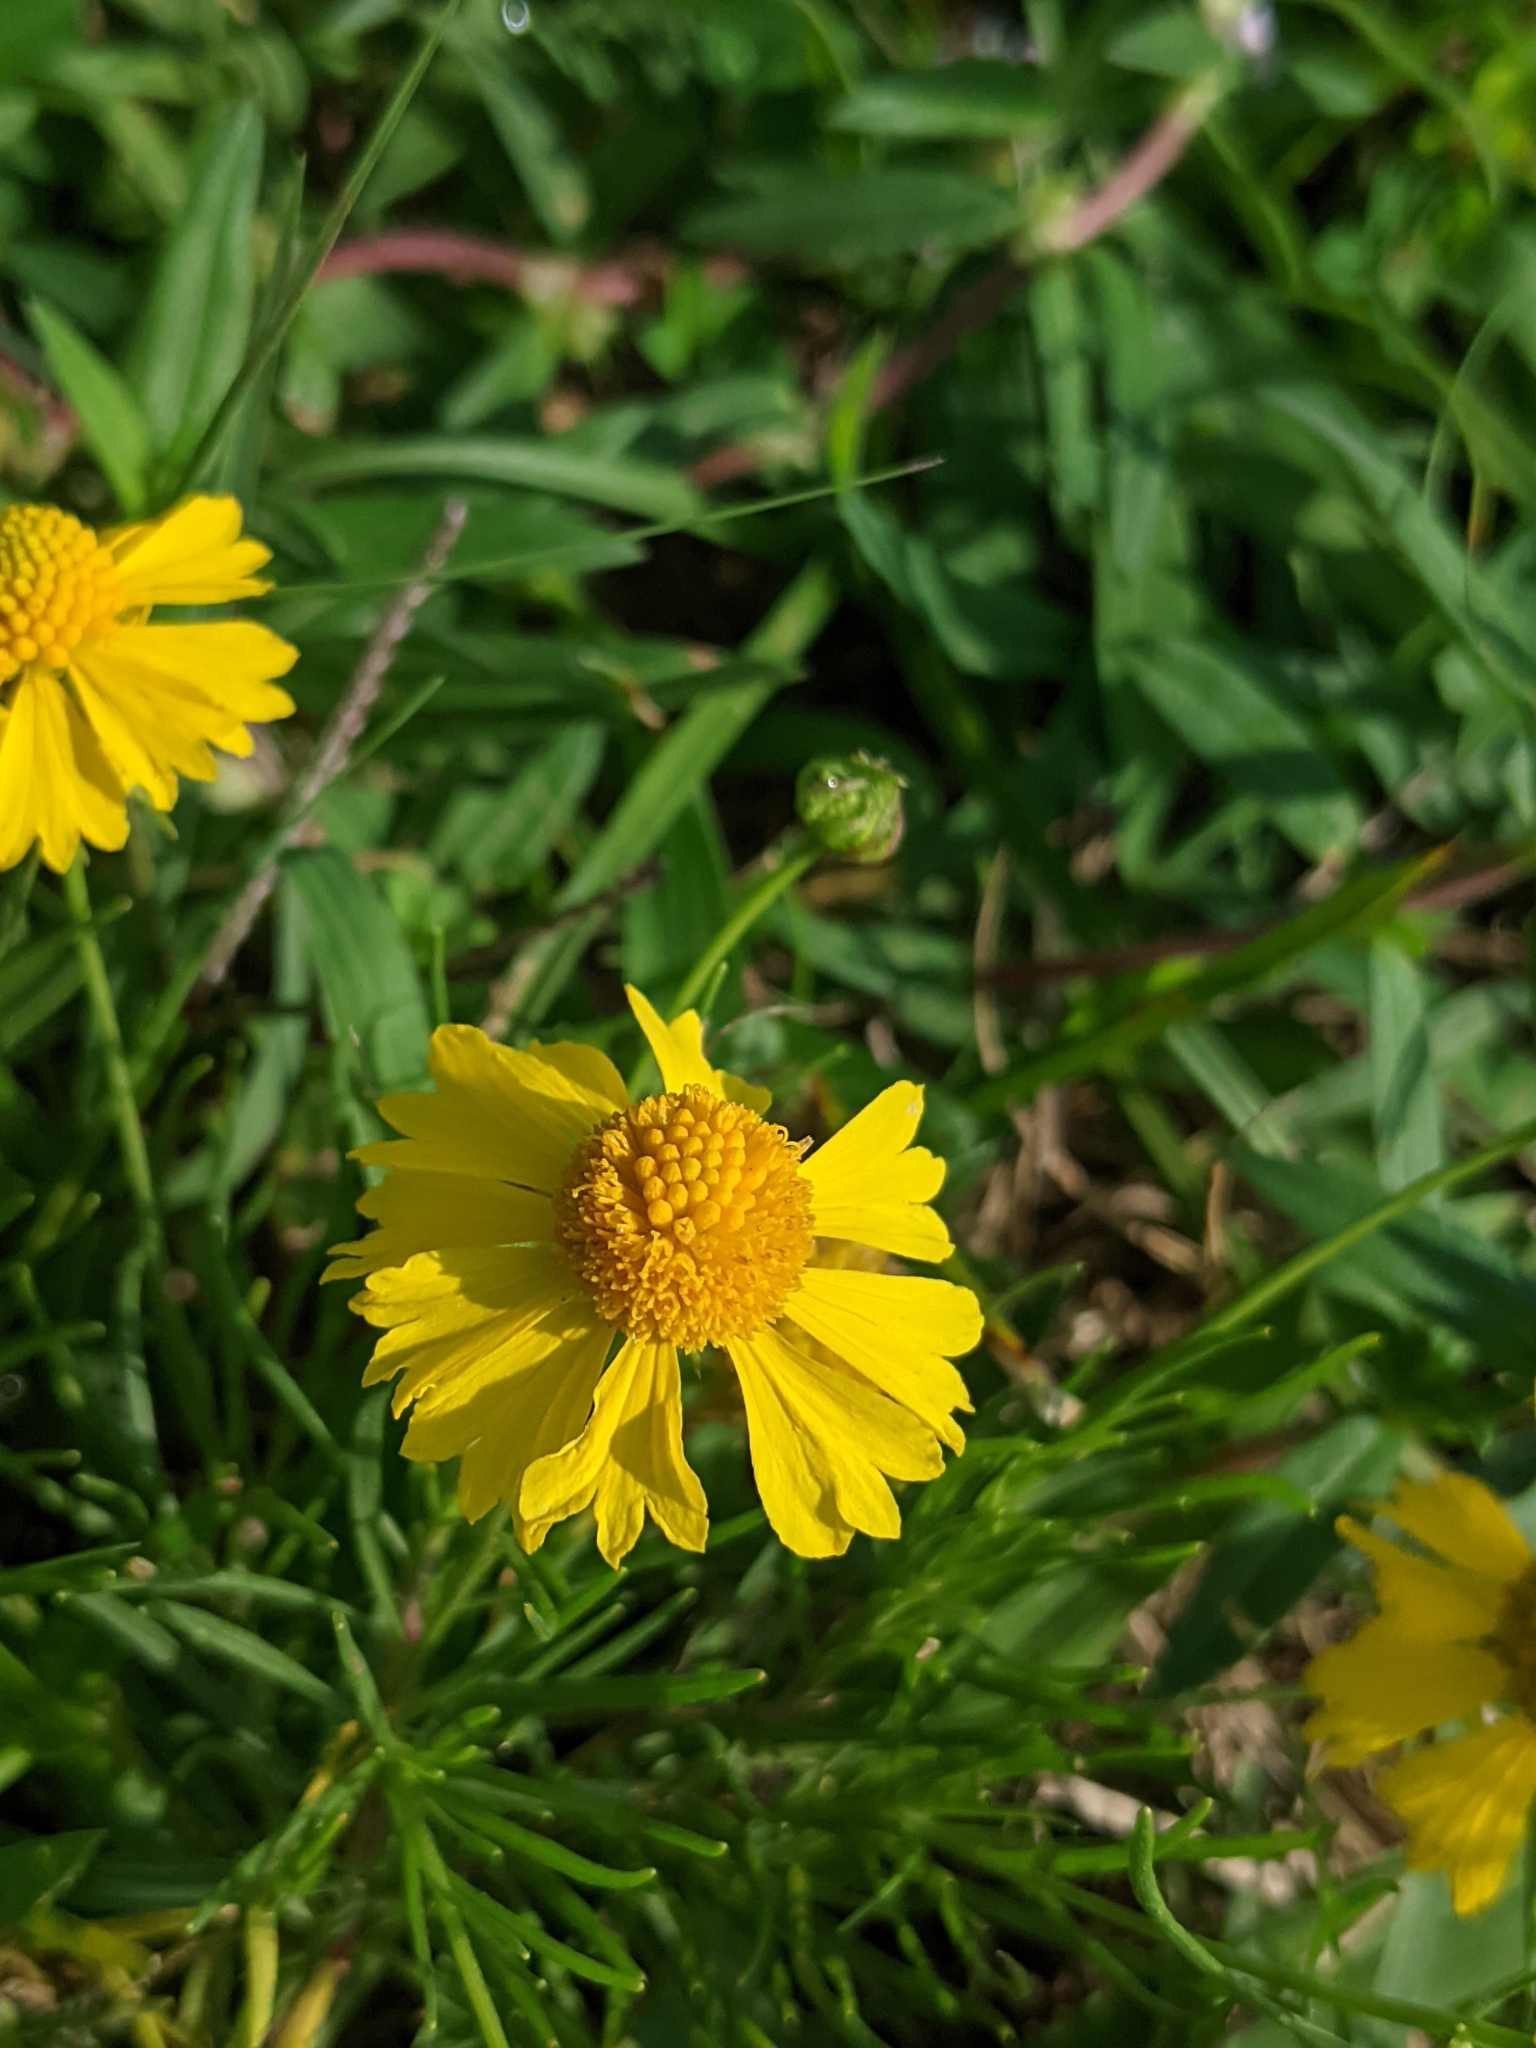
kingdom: Plantae
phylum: Tracheophyta
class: Magnoliopsida
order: Asterales
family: Asteraceae
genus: Helenium
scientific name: Helenium amarum
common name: Bitter sneezeweed
